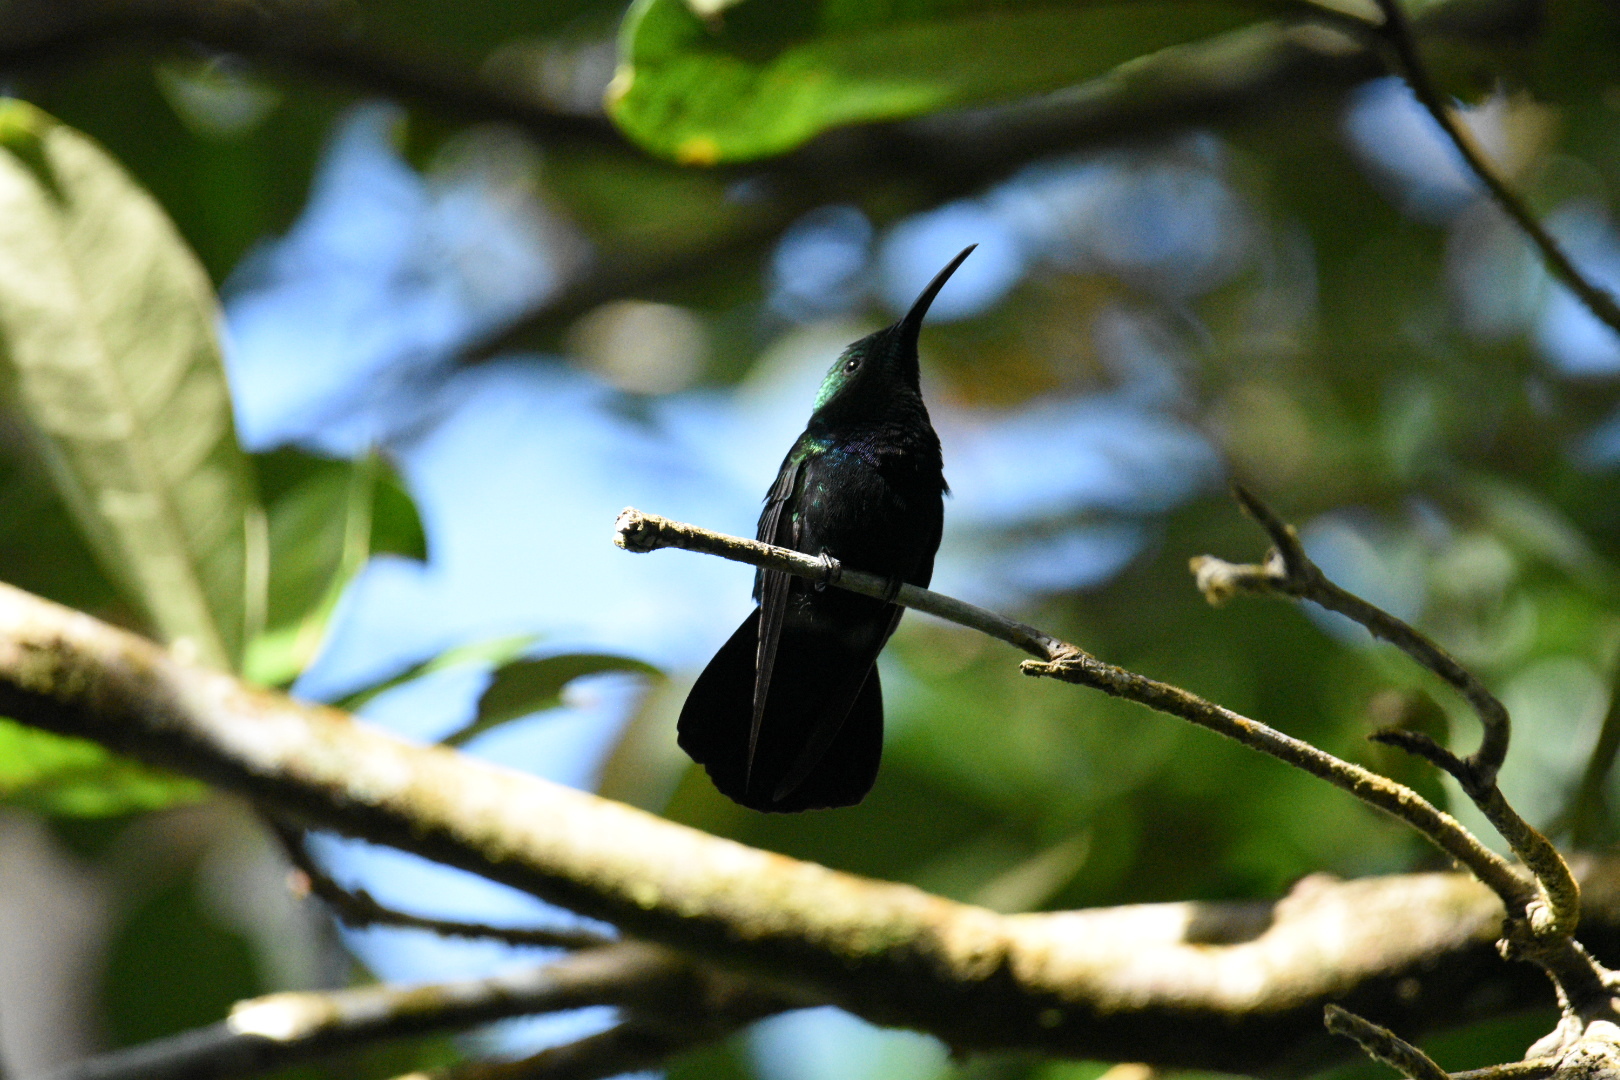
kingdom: Animalia
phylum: Chordata
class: Aves
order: Apodiformes
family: Trochilidae
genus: Eulampis
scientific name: Eulampis holosericeus
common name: Green-throated carib
